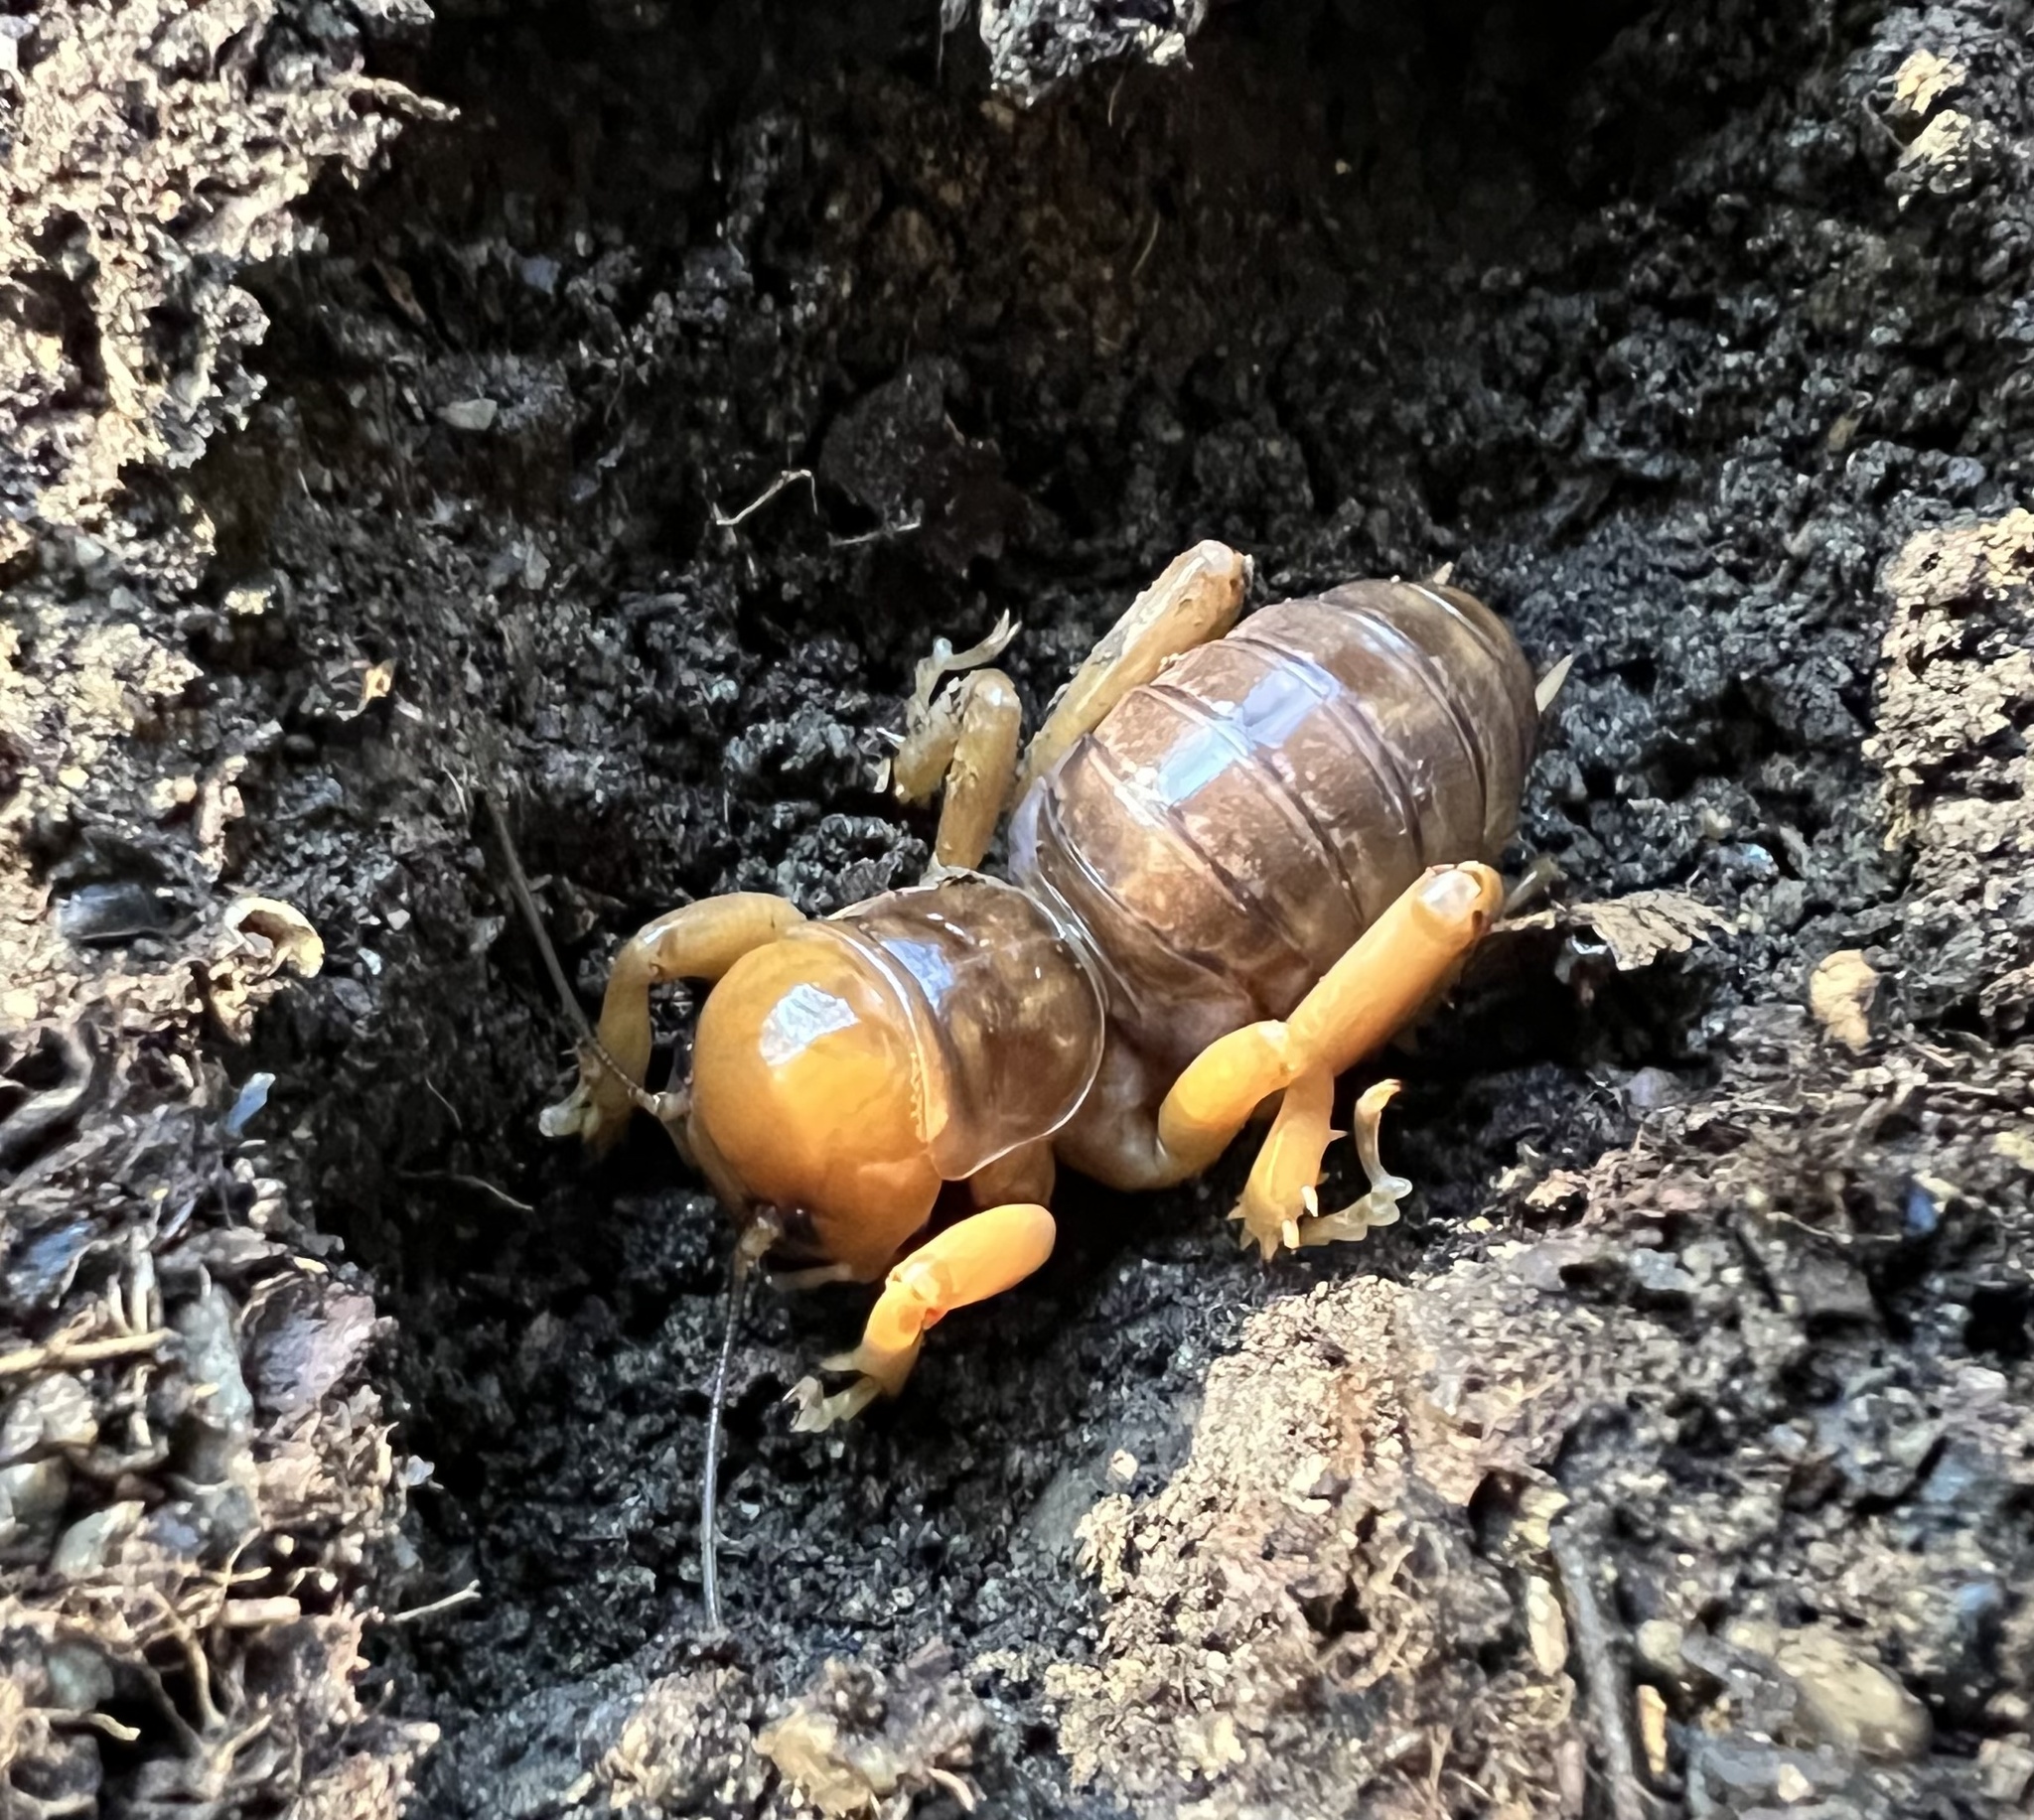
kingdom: Animalia
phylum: Arthropoda
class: Insecta
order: Orthoptera
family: Stenopelmatidae
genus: Ammopelmatus
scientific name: Ammopelmatus
